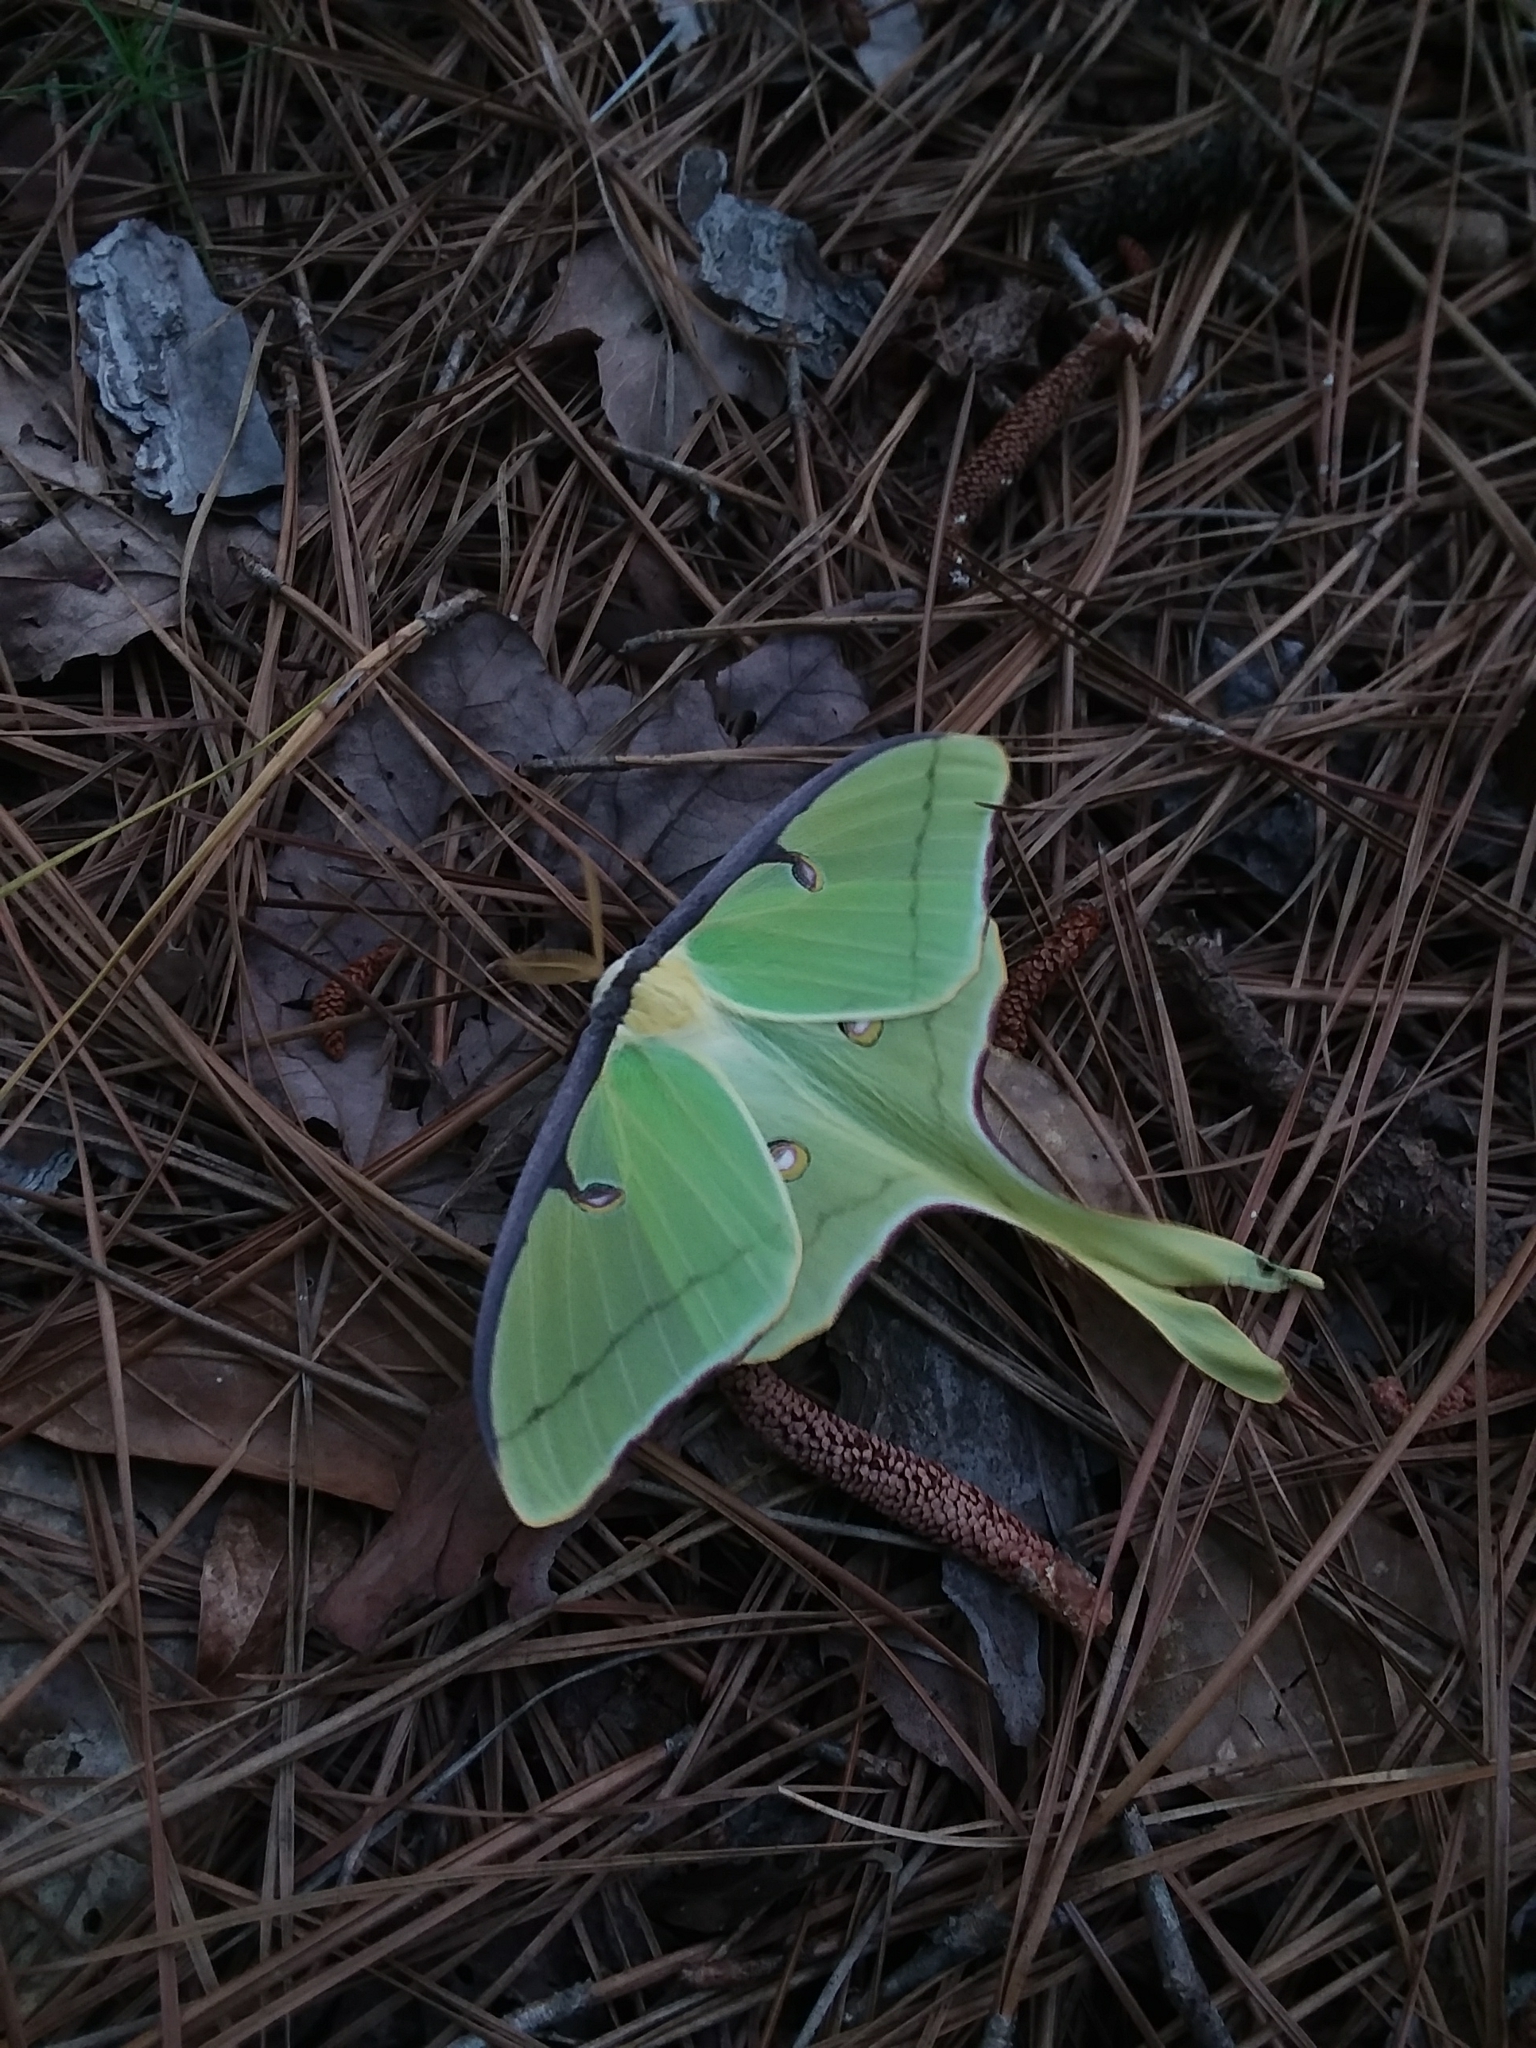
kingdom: Animalia
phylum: Arthropoda
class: Insecta
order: Lepidoptera
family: Saturniidae
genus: Actias
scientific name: Actias luna
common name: Luna moth
